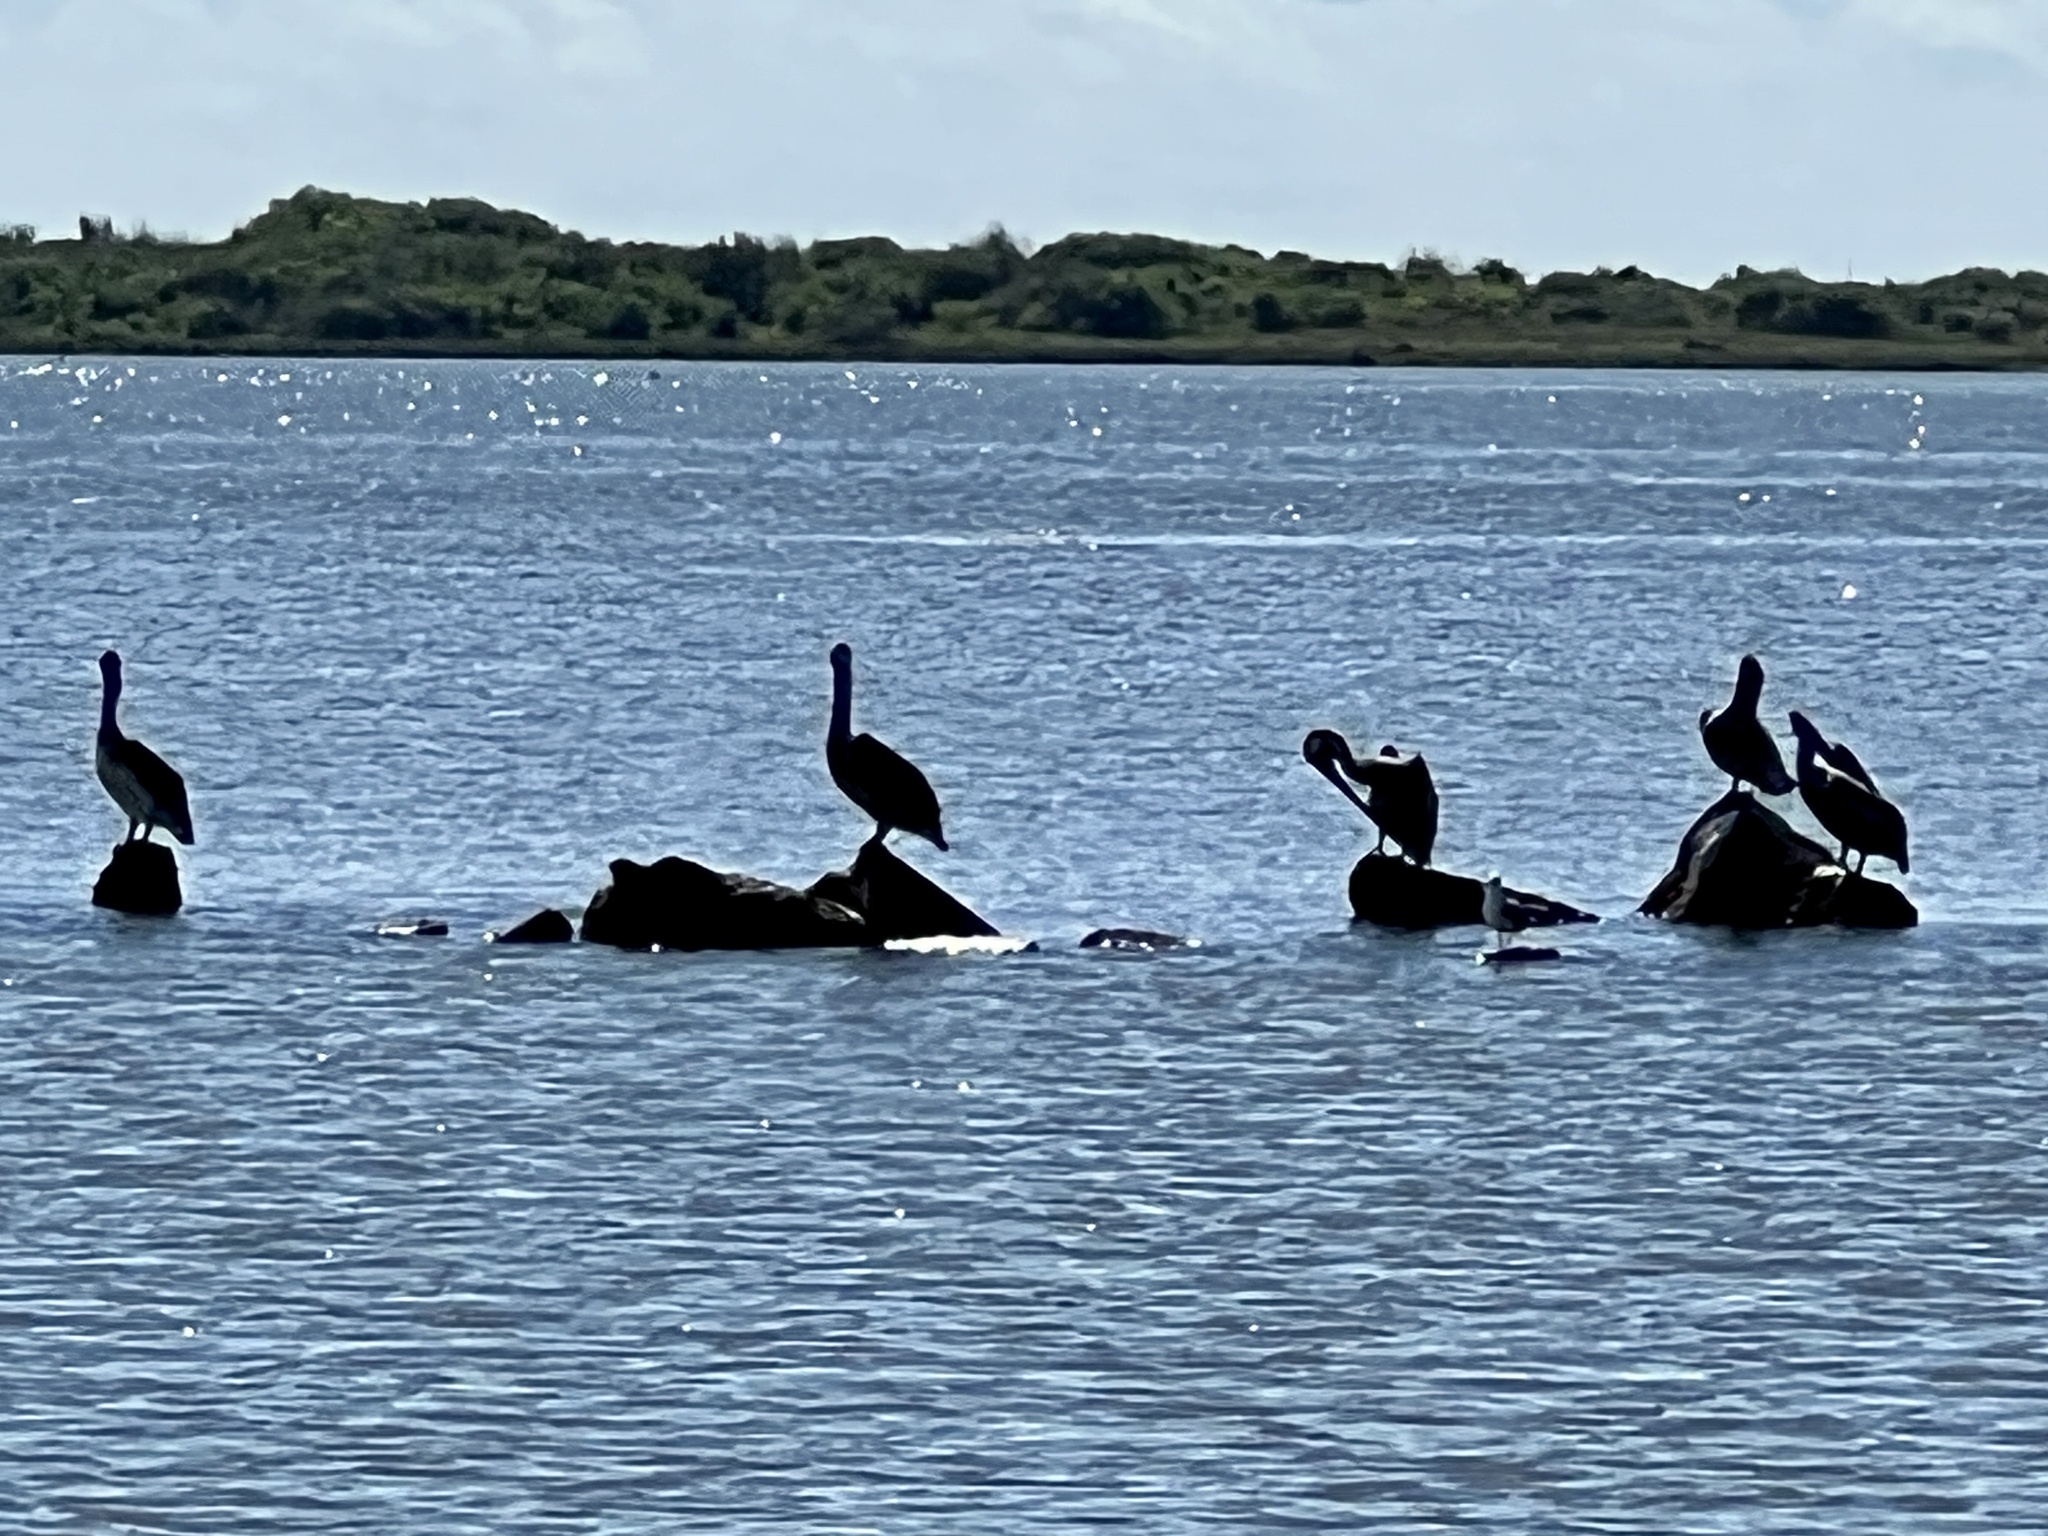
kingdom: Animalia
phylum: Chordata
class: Aves
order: Pelecaniformes
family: Pelecanidae
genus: Pelecanus
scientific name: Pelecanus occidentalis
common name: Brown pelican
